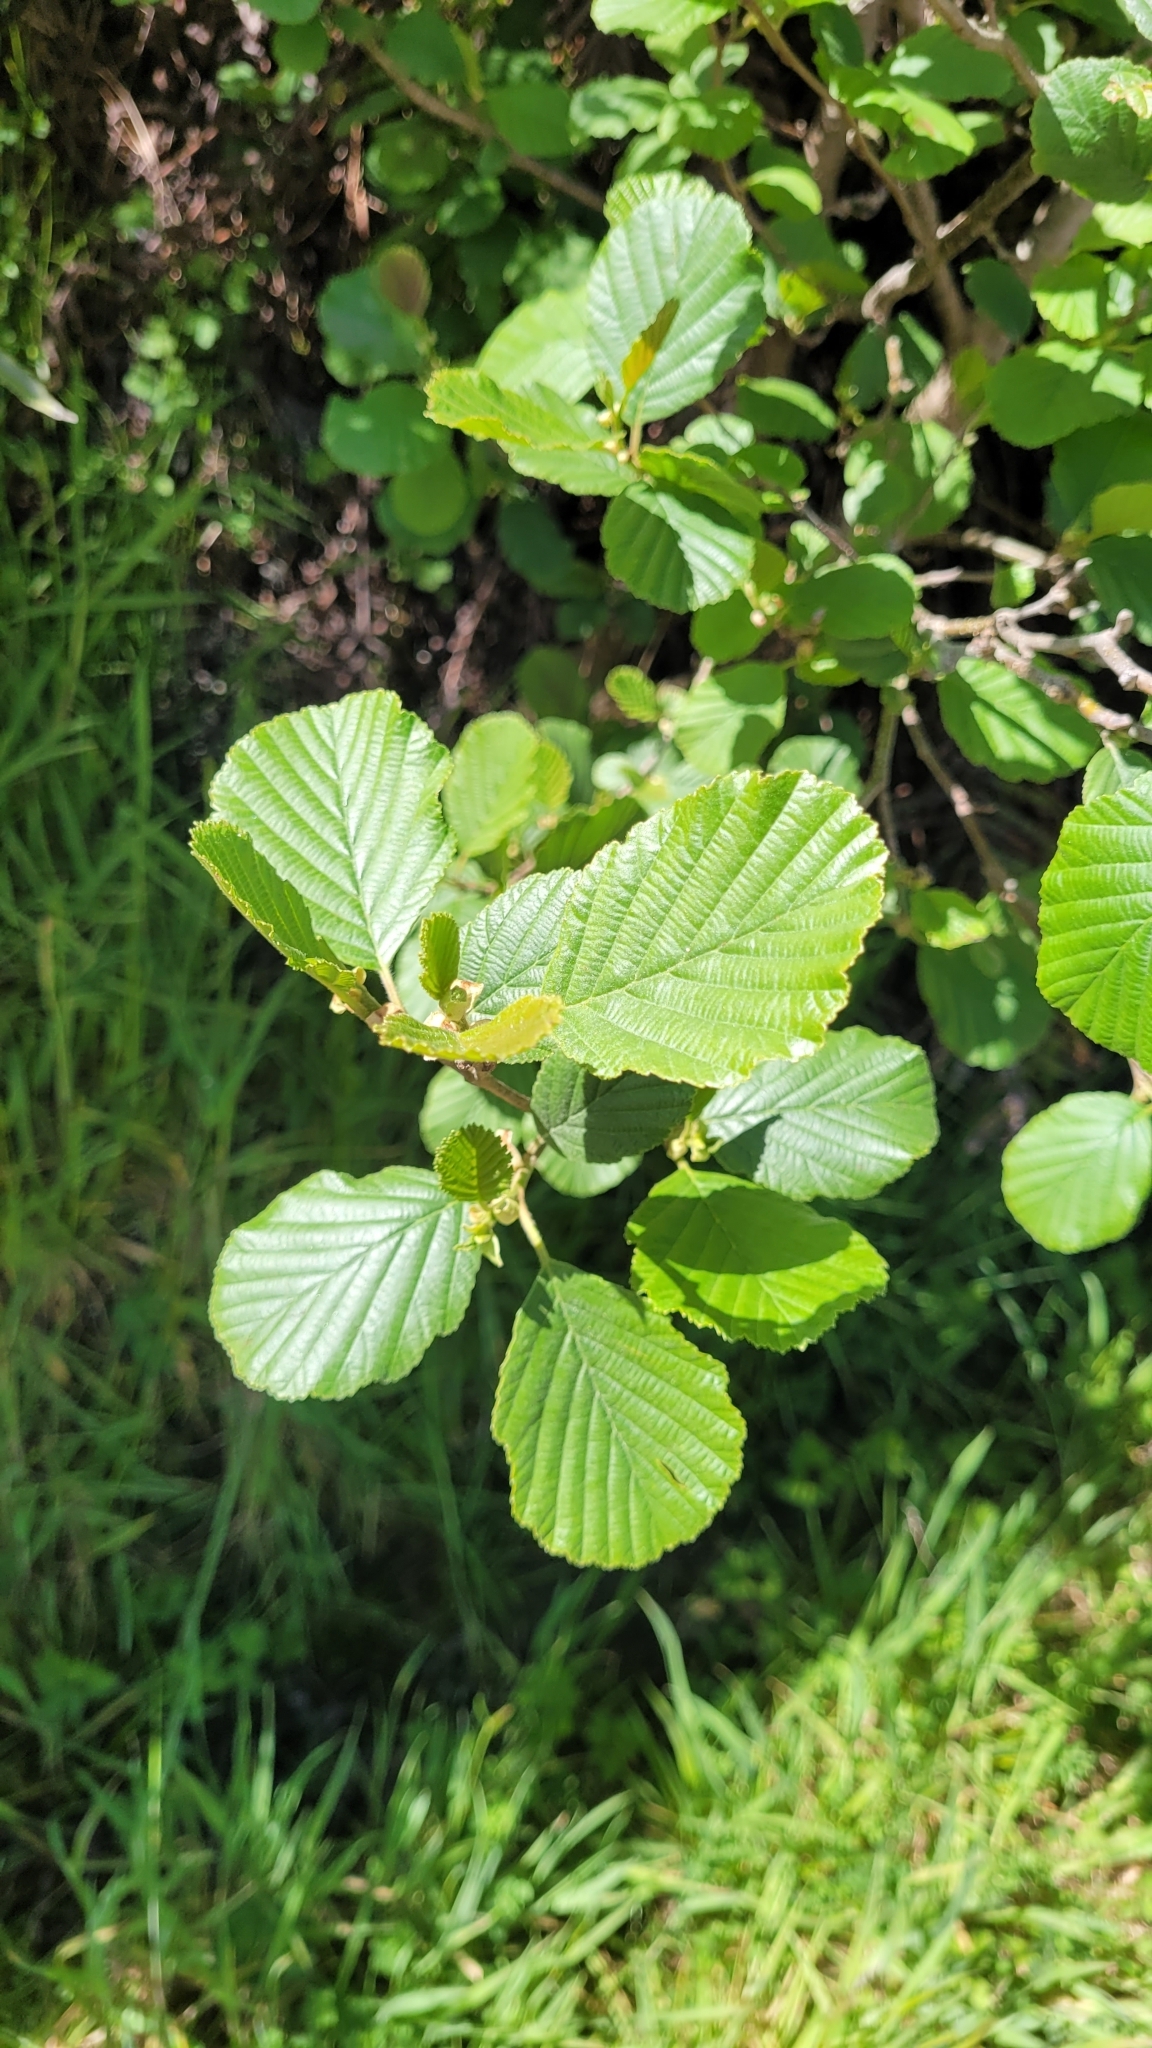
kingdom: Plantae
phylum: Tracheophyta
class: Magnoliopsida
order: Fagales
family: Betulaceae
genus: Alnus
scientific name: Alnus glutinosa
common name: Black alder
